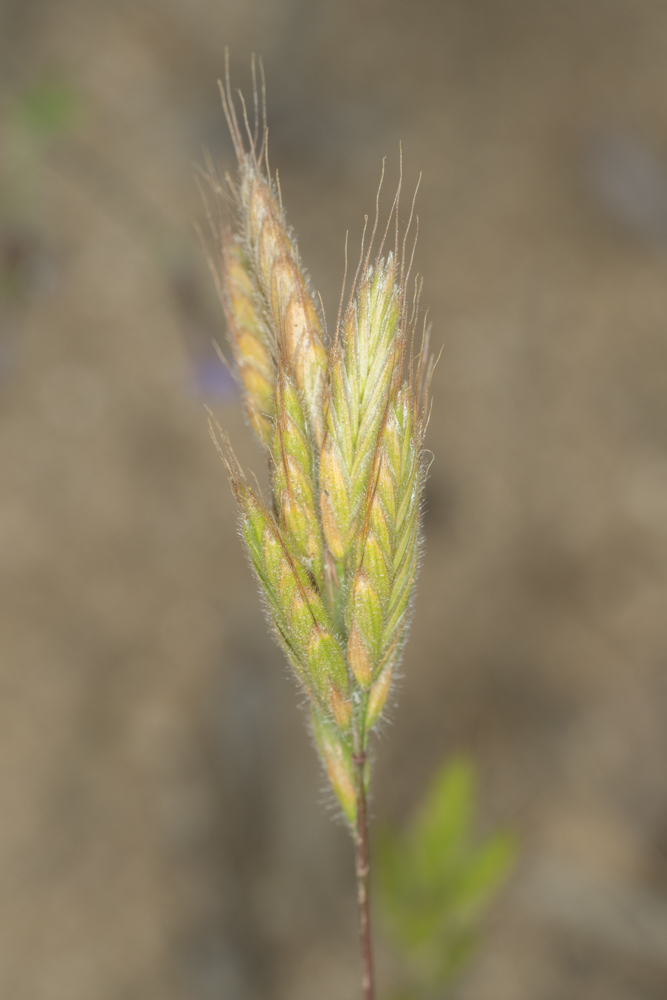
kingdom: Plantae
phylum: Tracheophyta
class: Liliopsida
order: Poales
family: Poaceae
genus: Bromus
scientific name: Bromus hordeaceus
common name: Soft brome
